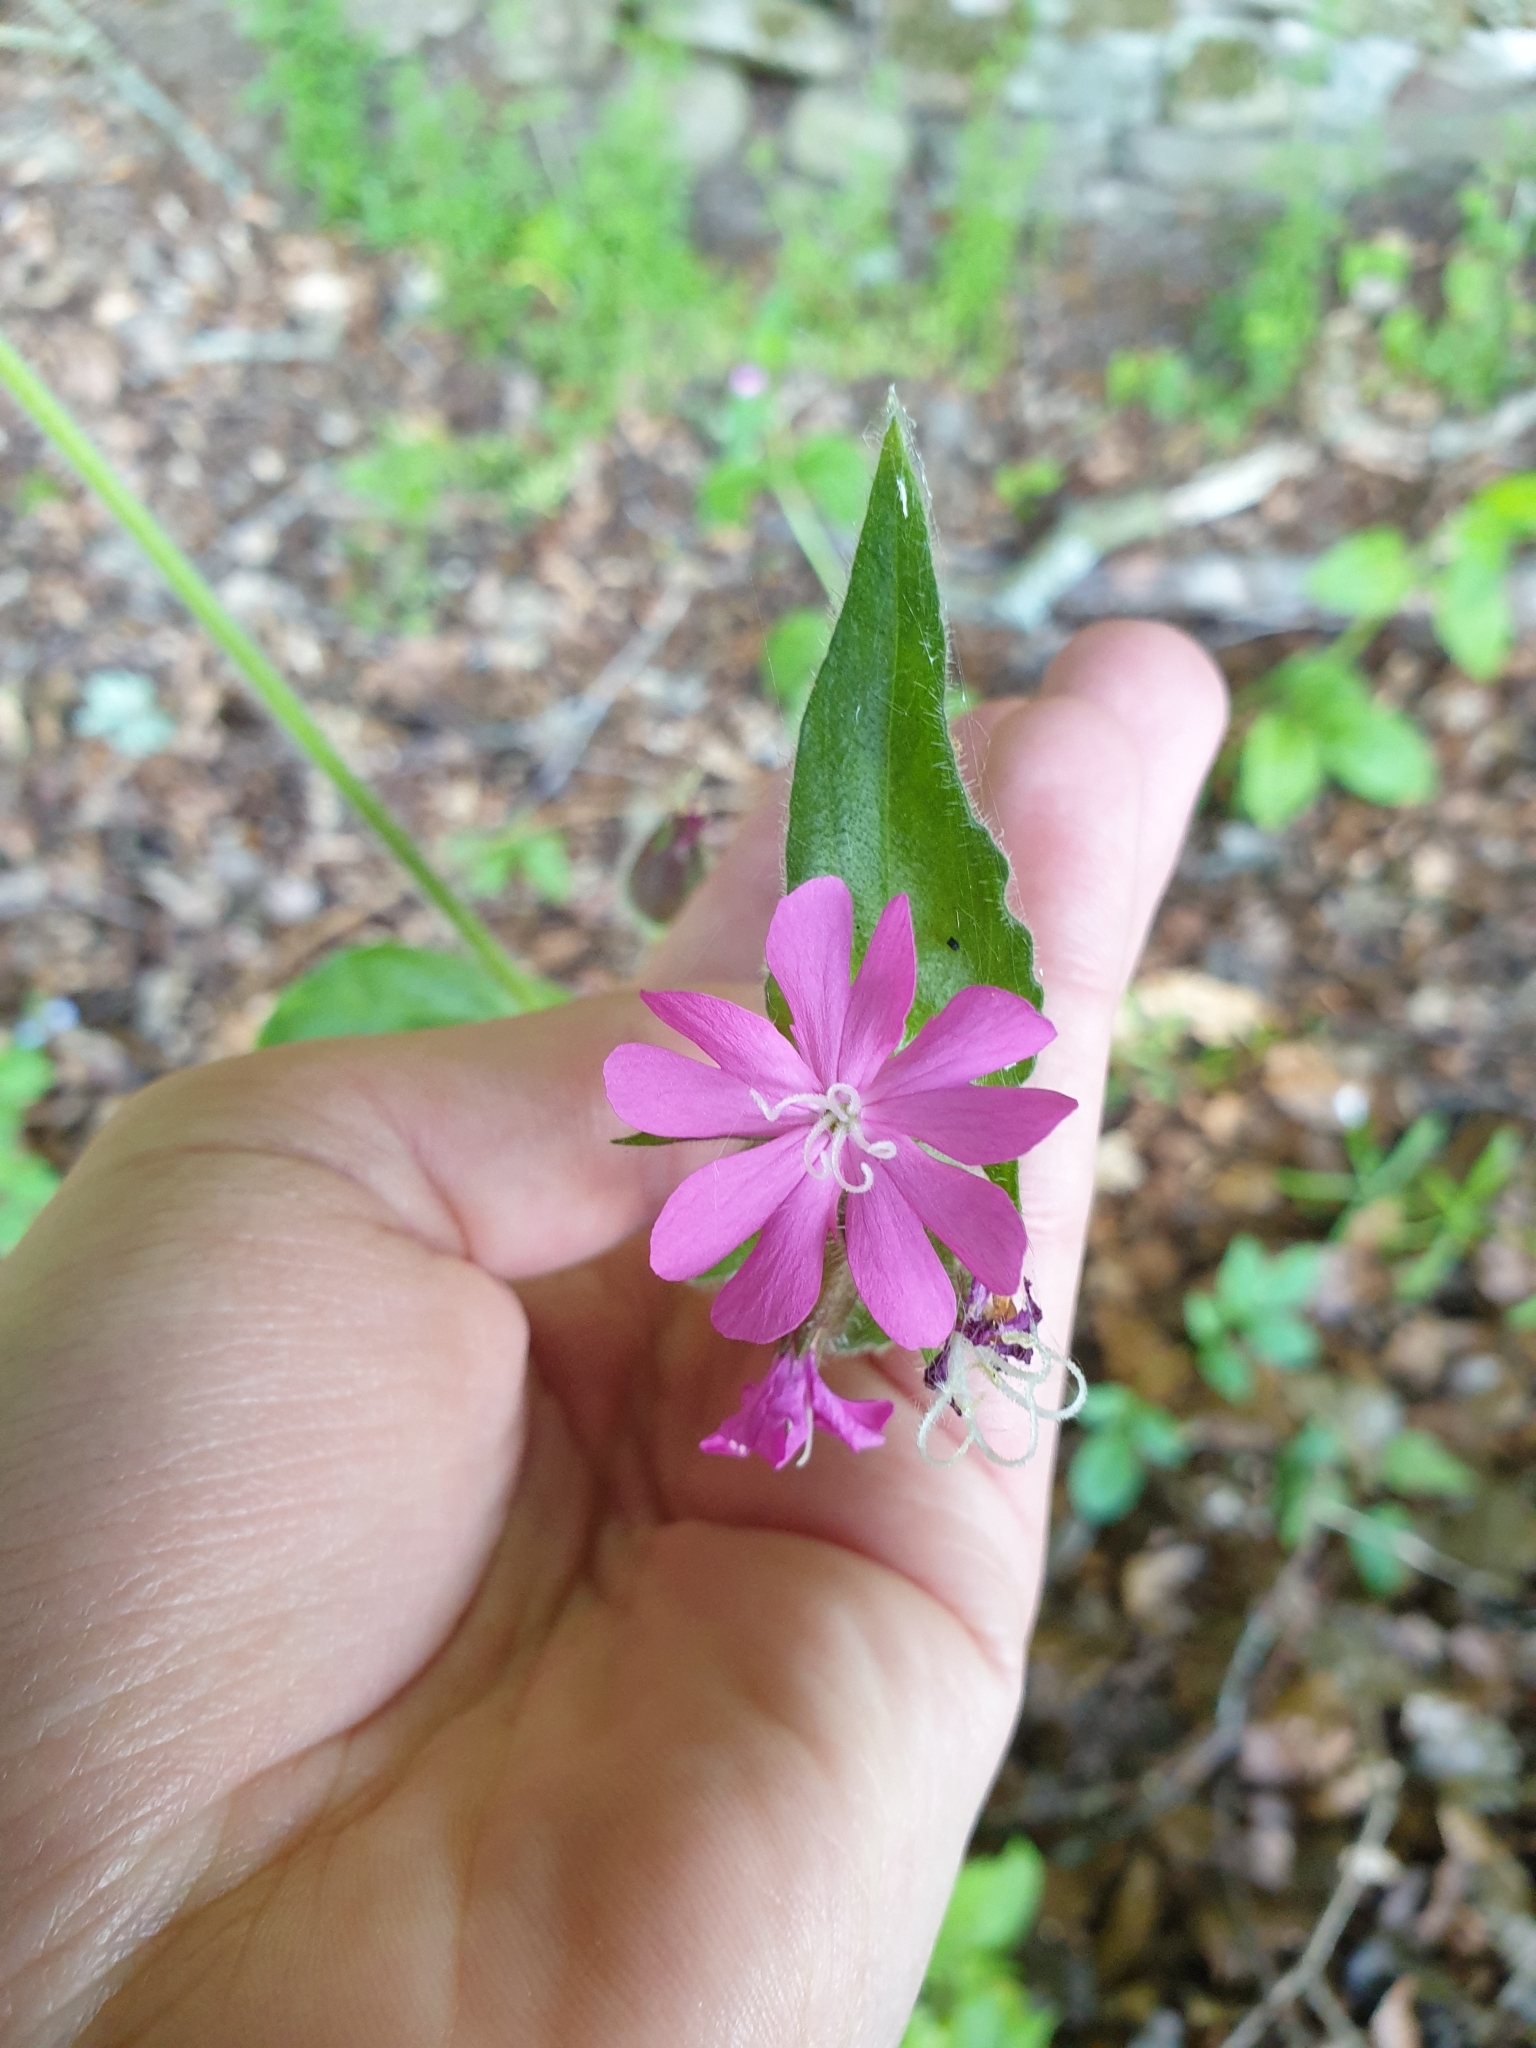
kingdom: Plantae
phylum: Tracheophyta
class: Magnoliopsida
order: Caryophyllales
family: Caryophyllaceae
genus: Silene
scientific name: Silene dioica
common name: Red campion
